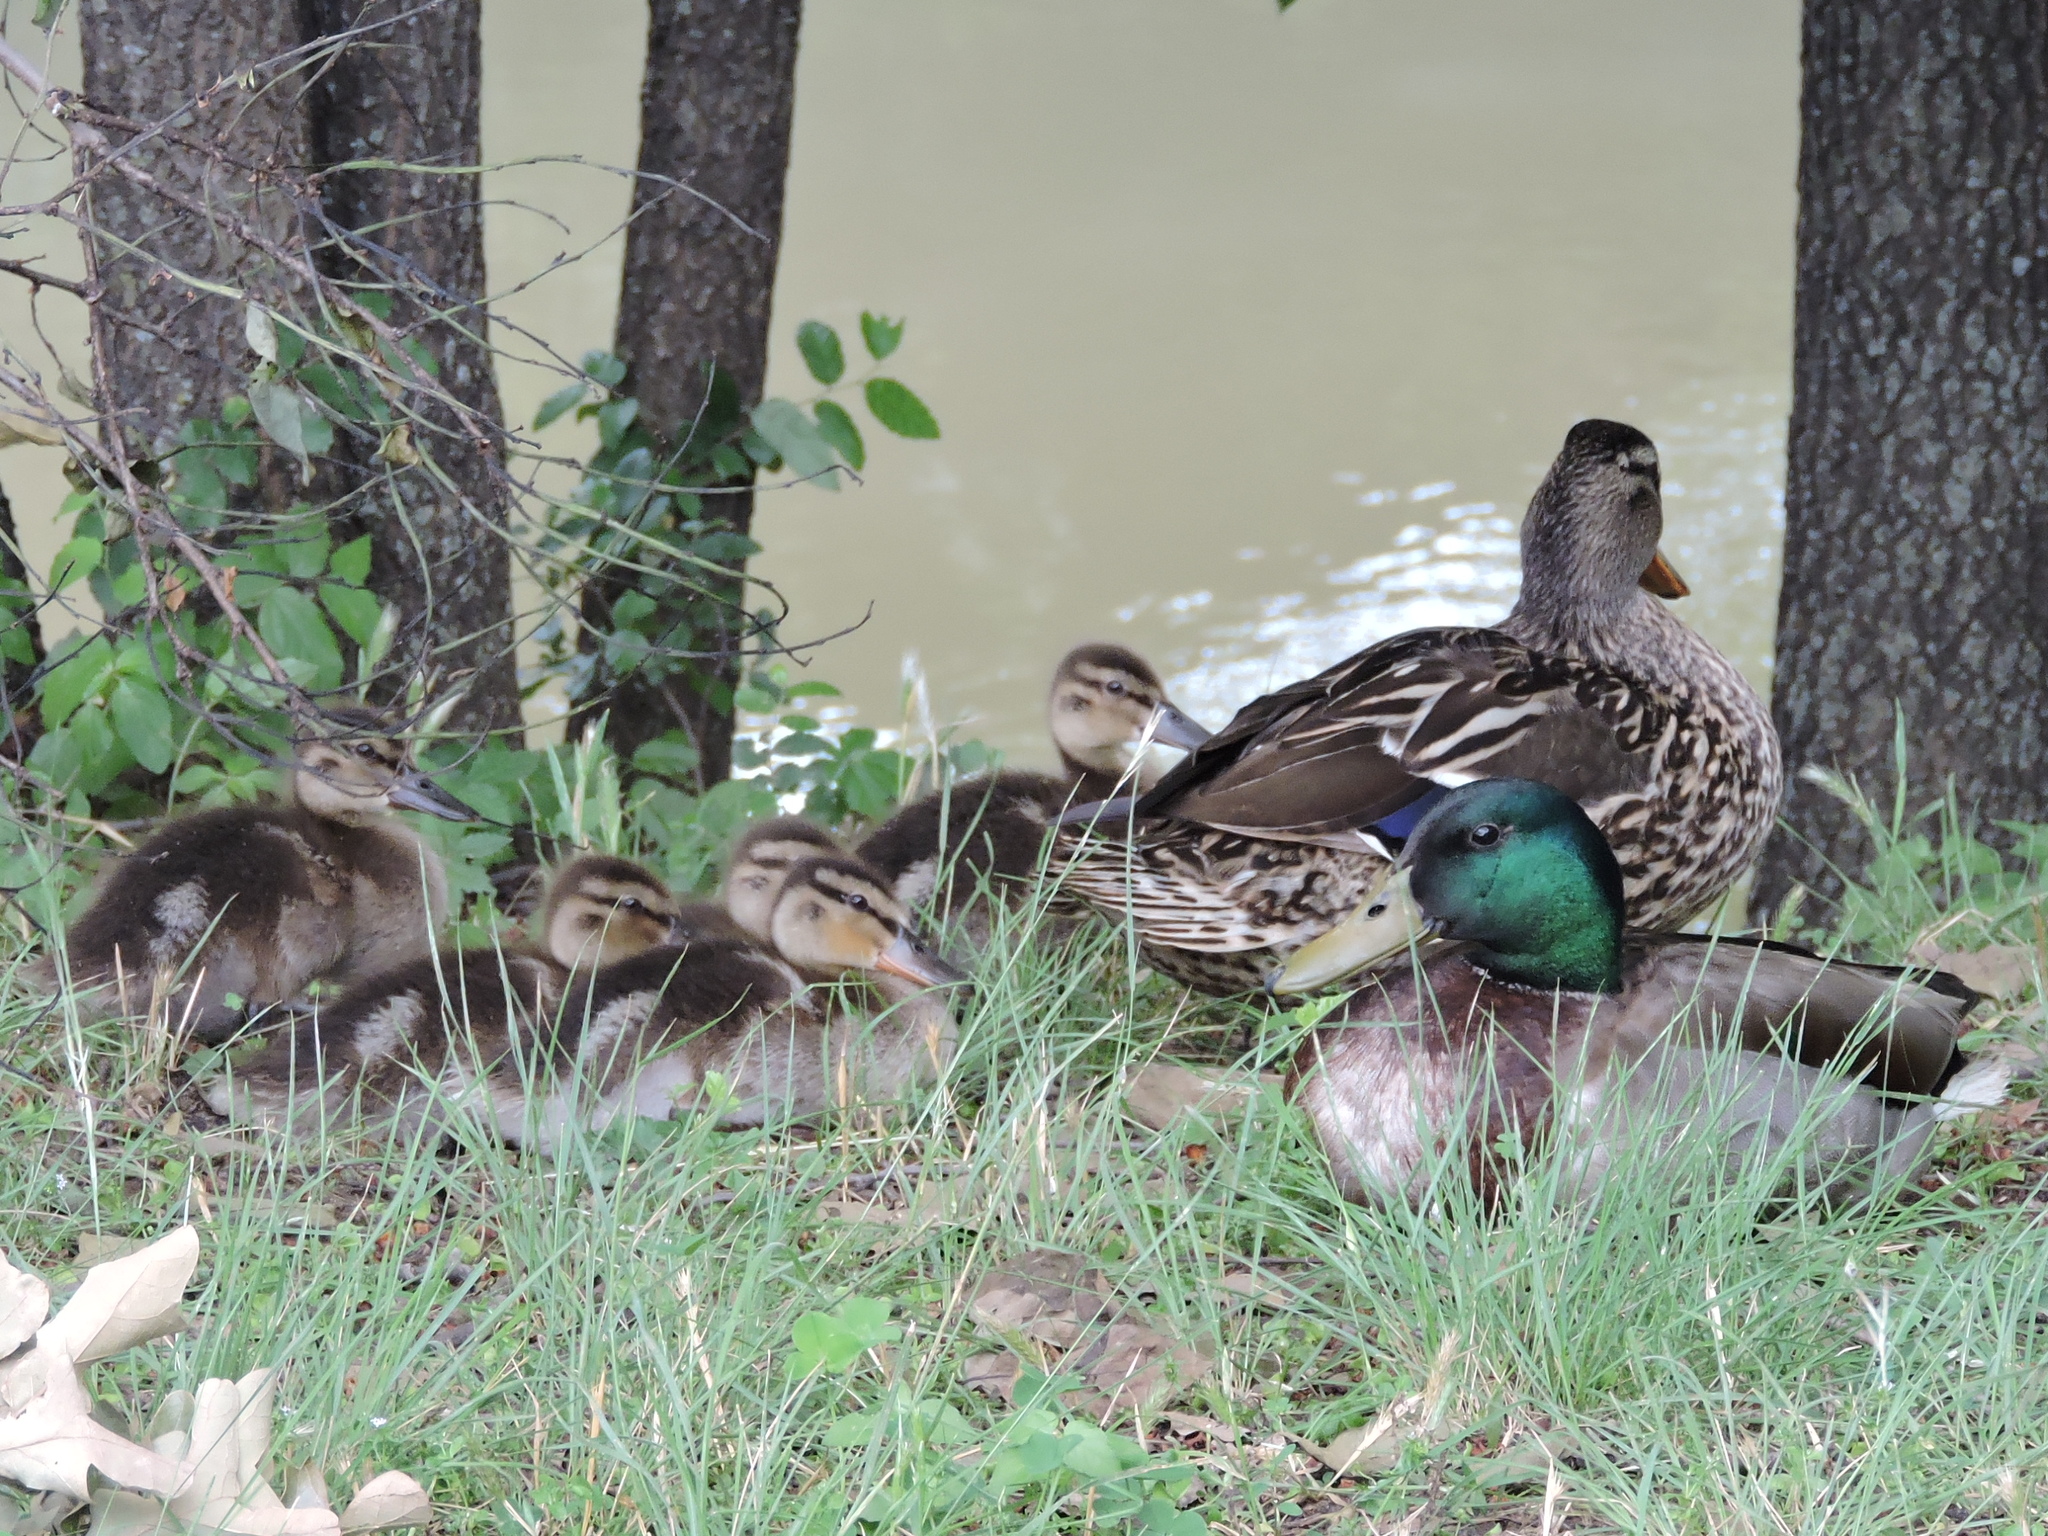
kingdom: Animalia
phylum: Chordata
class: Aves
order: Anseriformes
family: Anatidae
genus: Anas
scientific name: Anas platyrhynchos
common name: Mallard
